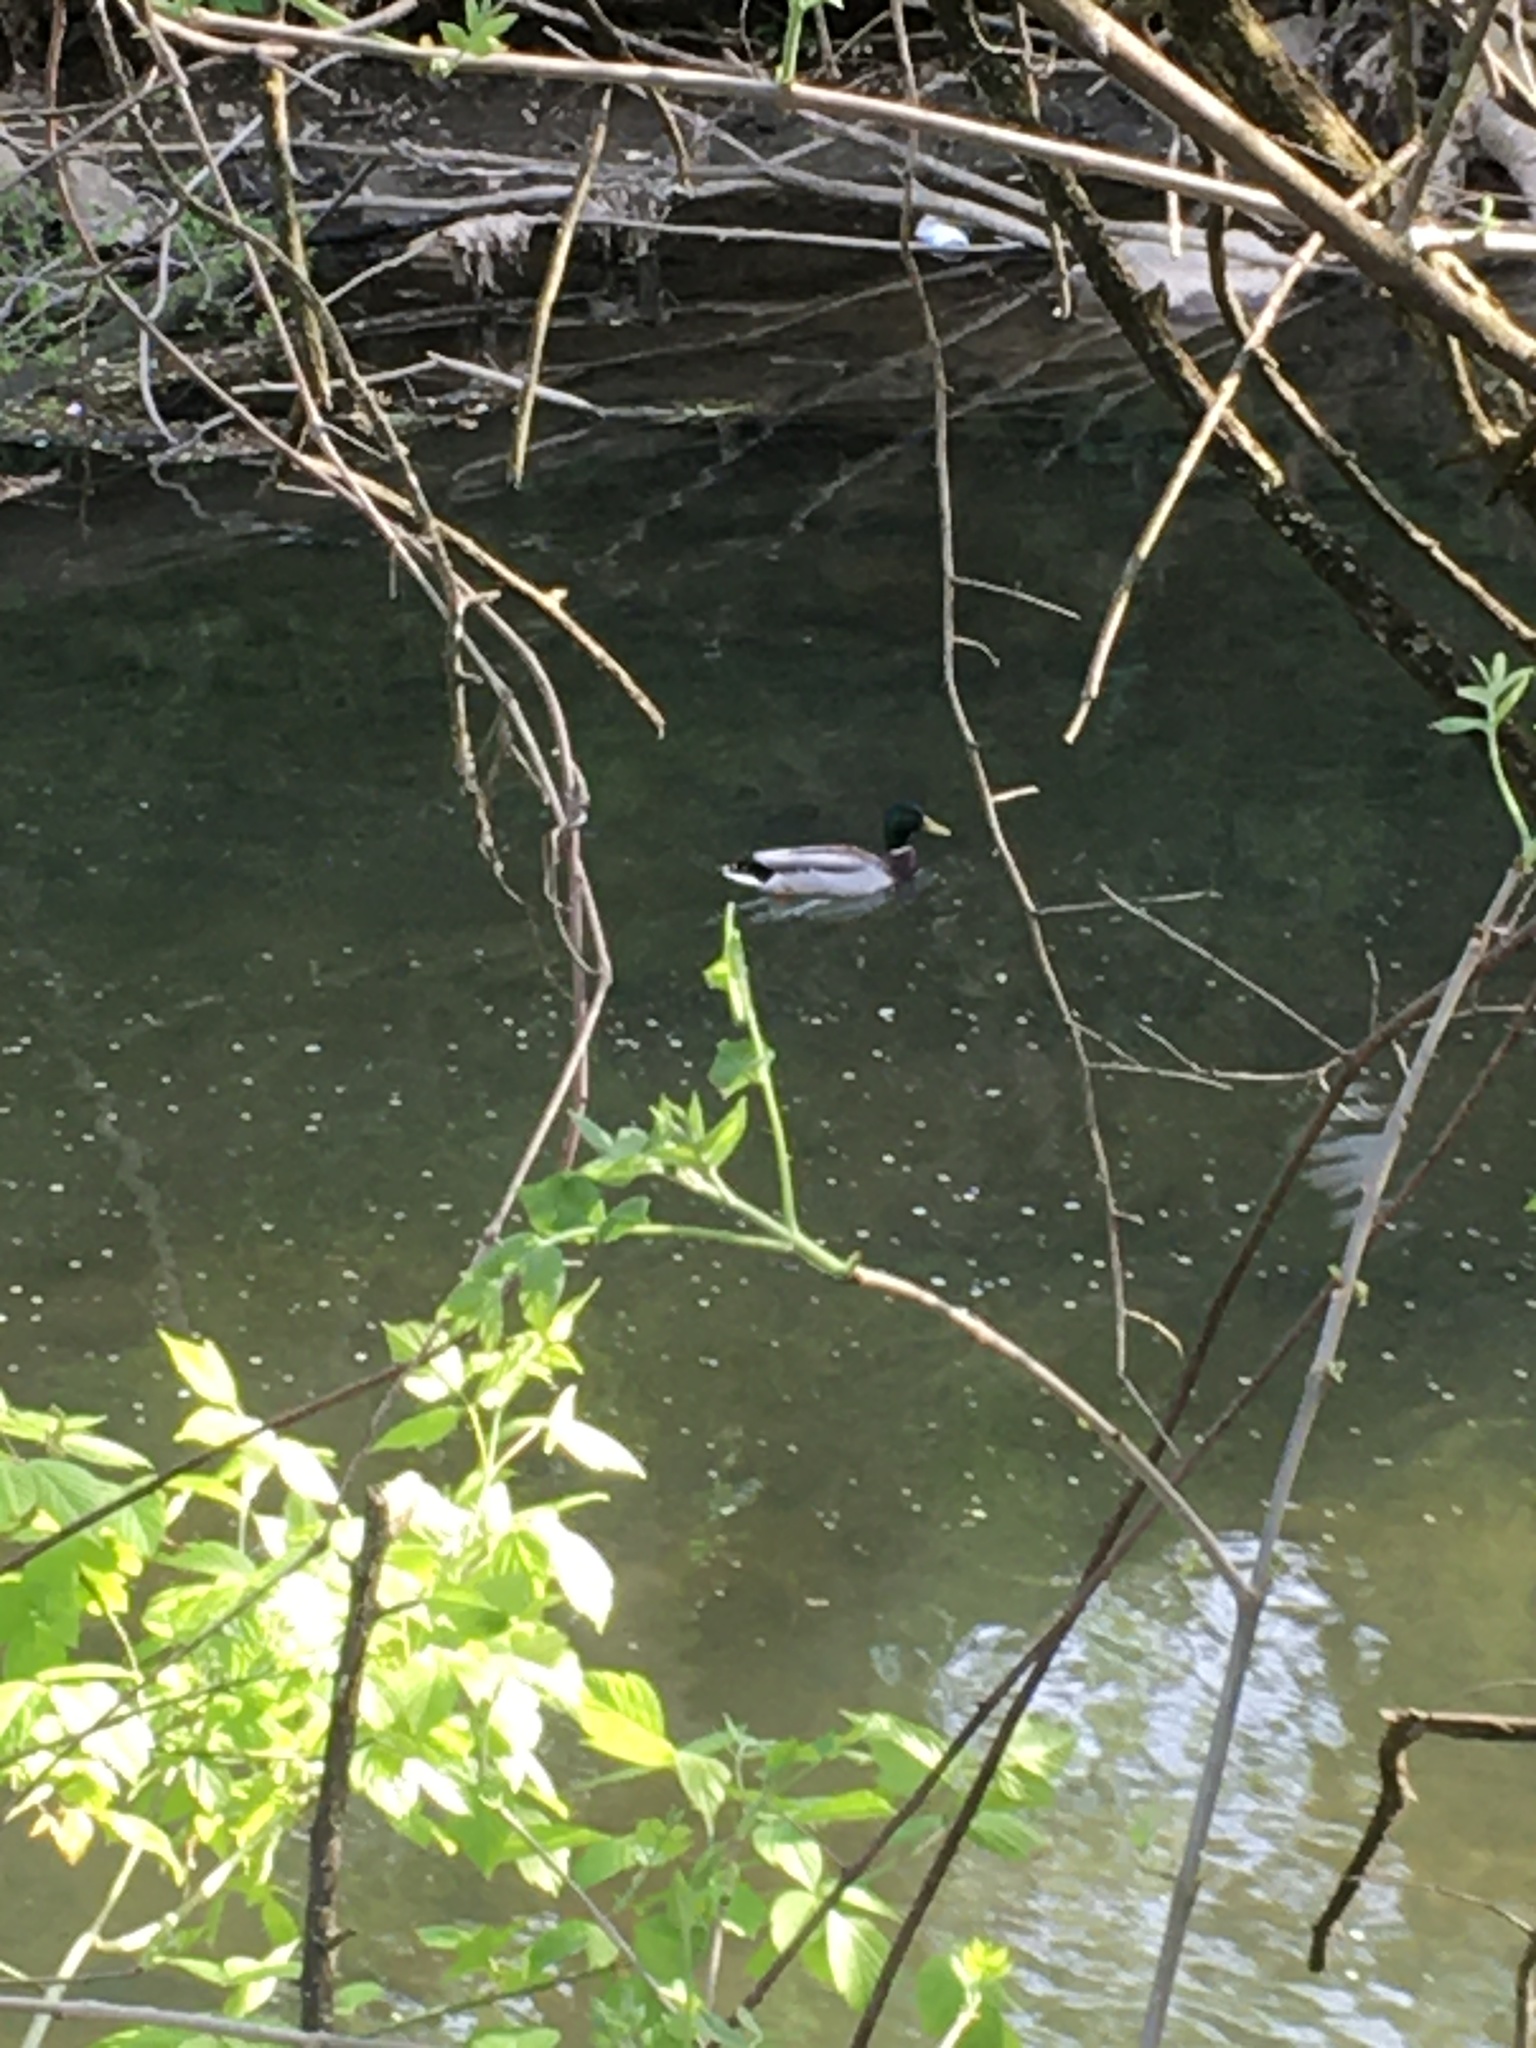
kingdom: Animalia
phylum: Chordata
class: Aves
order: Anseriformes
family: Anatidae
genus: Anas
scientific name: Anas platyrhynchos
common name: Mallard
